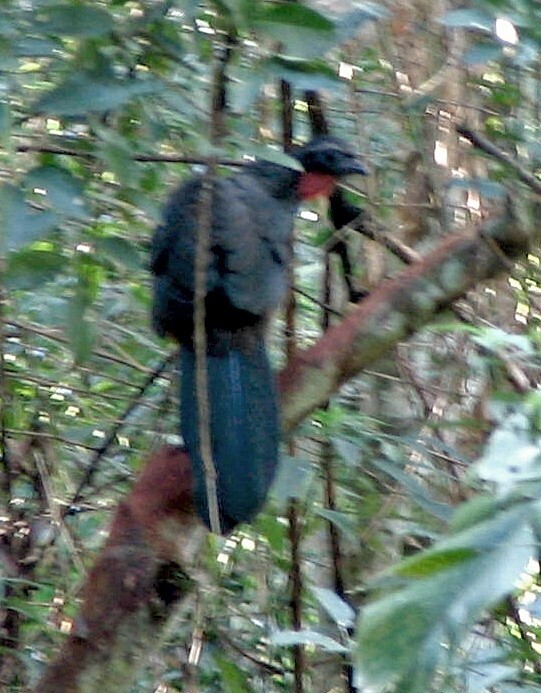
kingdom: Animalia
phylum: Chordata
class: Aves
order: Galliformes
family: Cracidae
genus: Penelope
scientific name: Penelope superciliaris
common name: Rusty-margined guan
